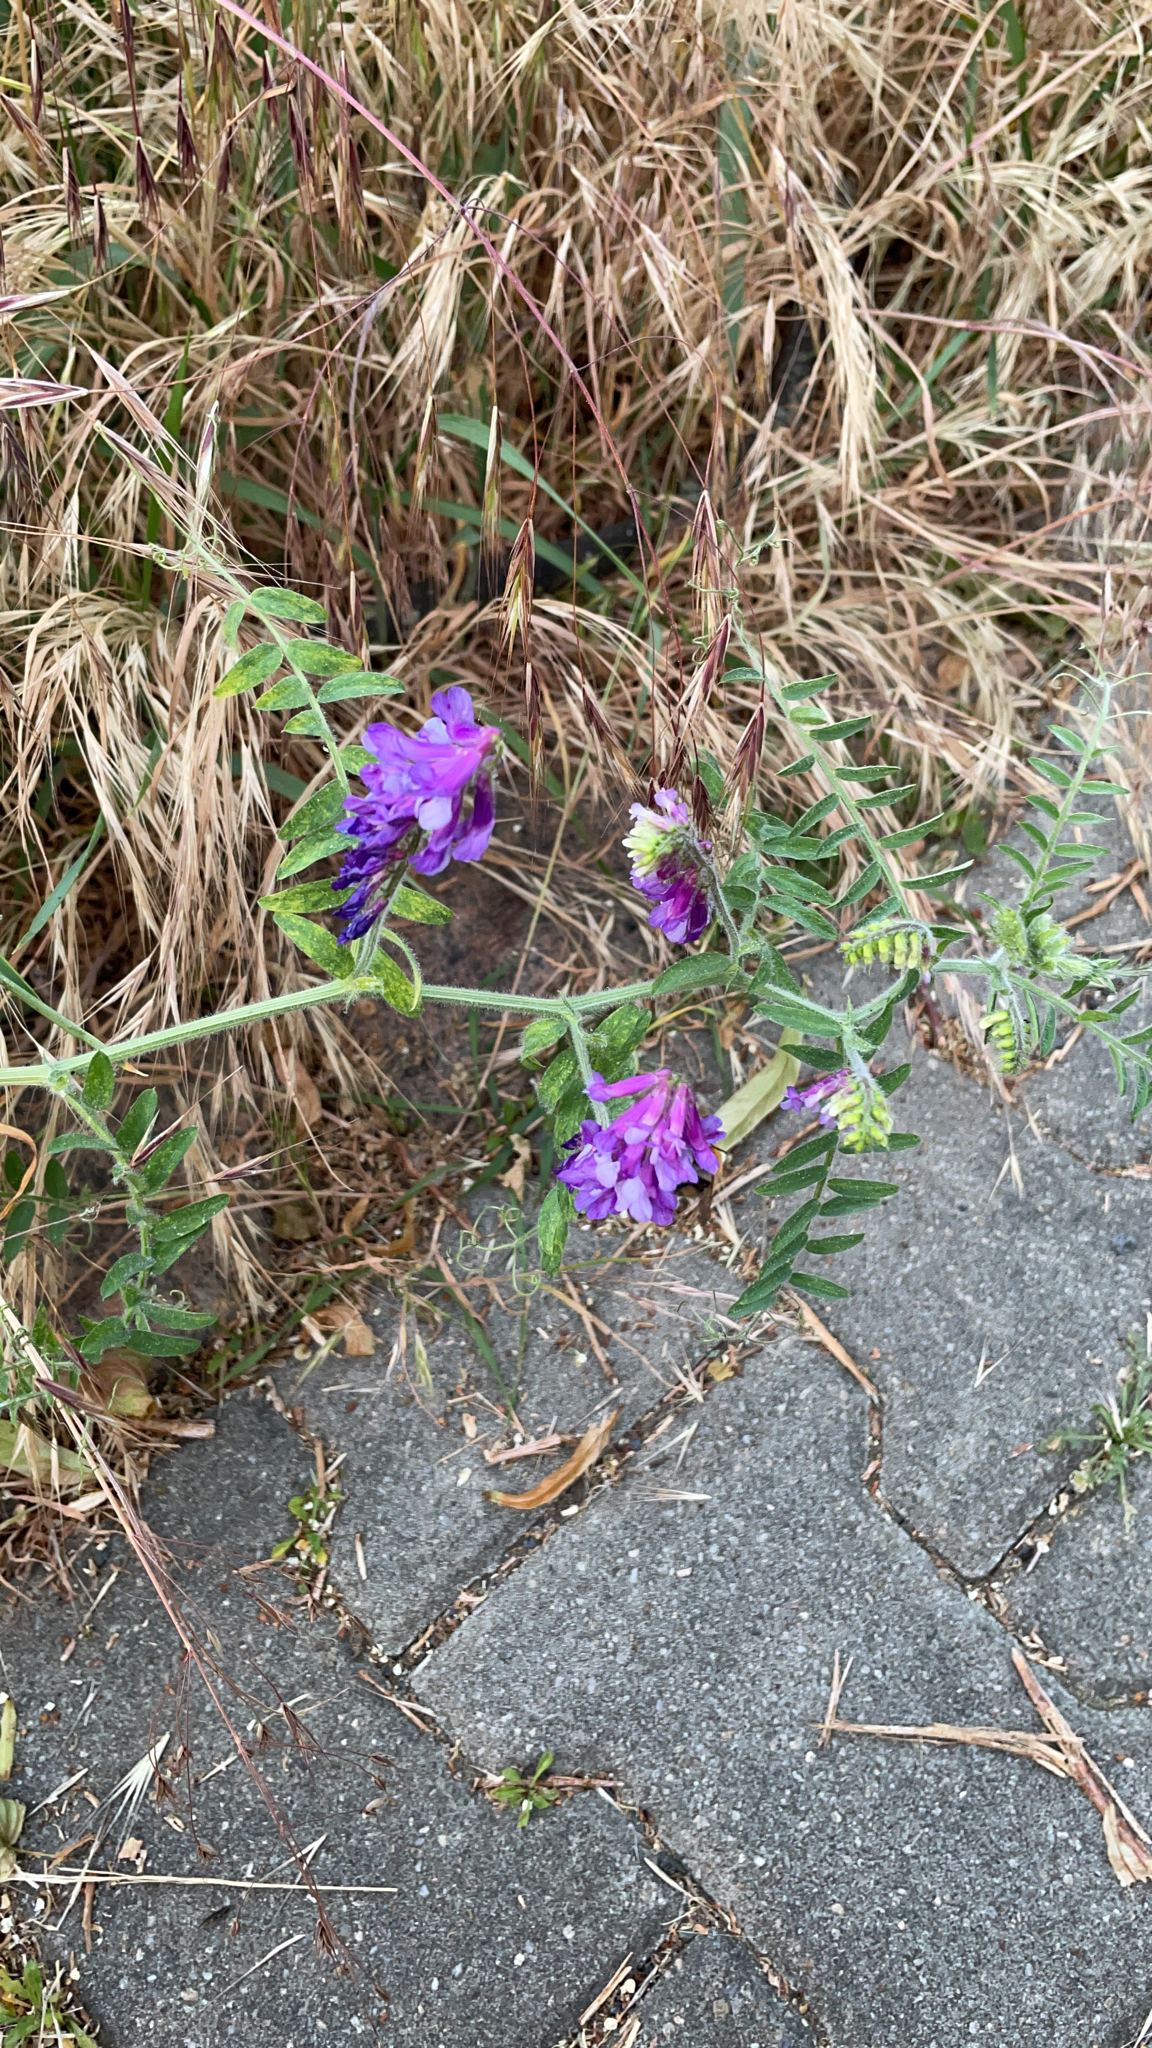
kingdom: Plantae
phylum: Tracheophyta
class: Magnoliopsida
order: Fabales
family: Fabaceae
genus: Vicia
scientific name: Vicia villosa
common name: Fodder vetch
